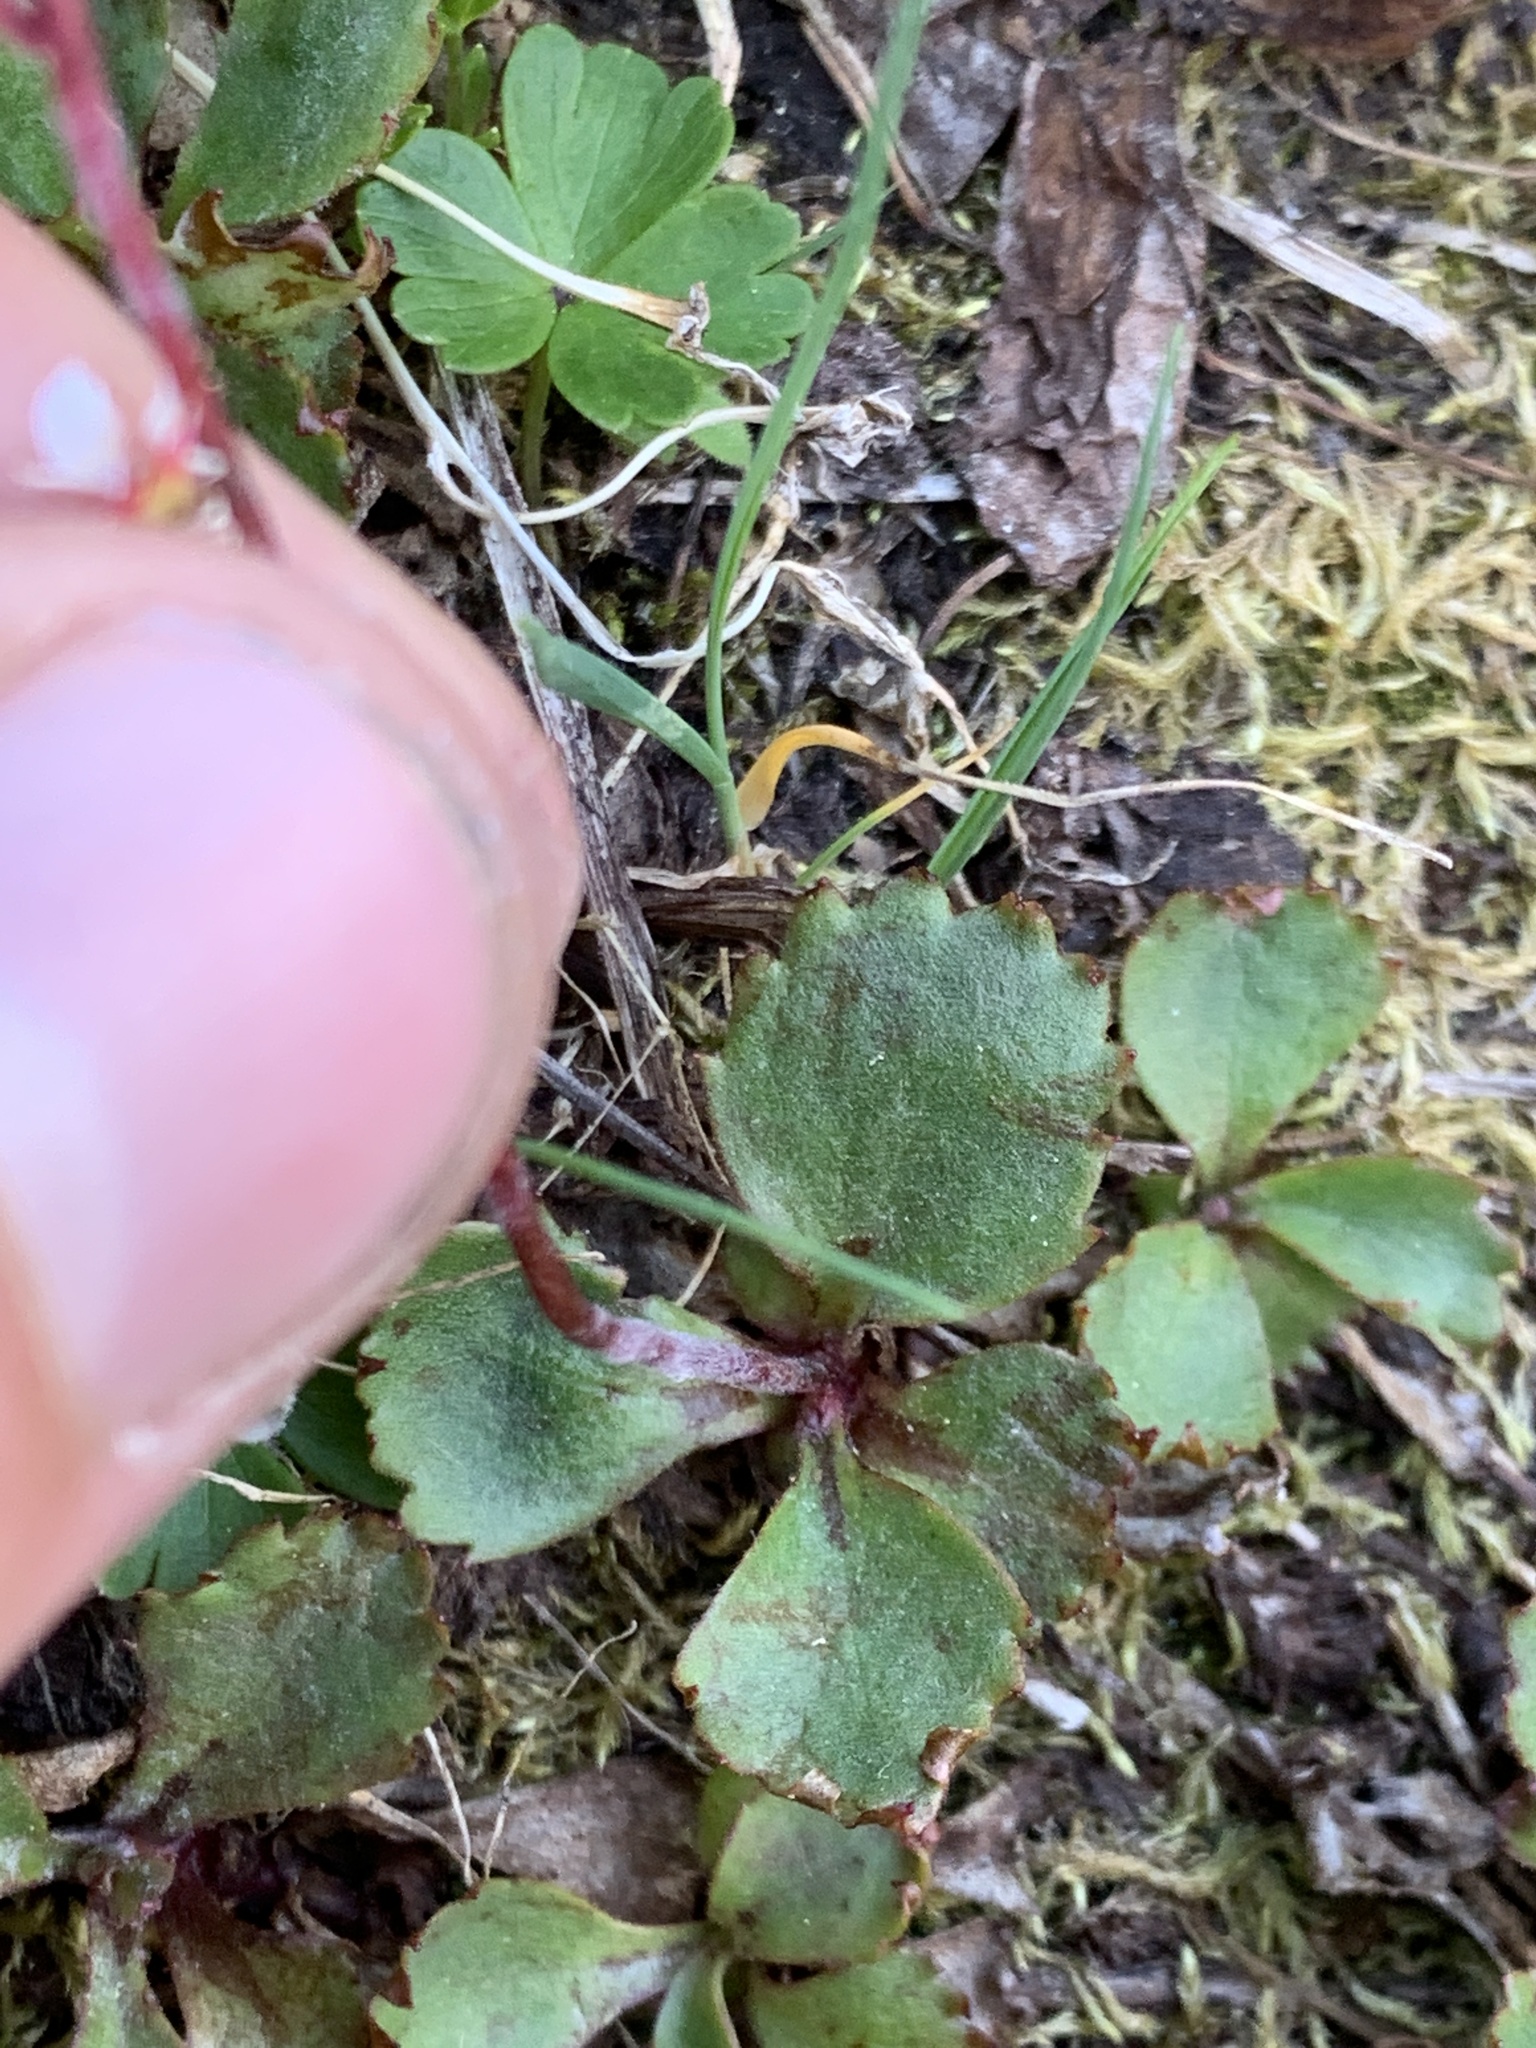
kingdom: Plantae
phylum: Tracheophyta
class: Magnoliopsida
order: Saxifragales
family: Saxifragaceae
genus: Micranthes
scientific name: Micranthes lyallii
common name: Lyall's saxifrage
